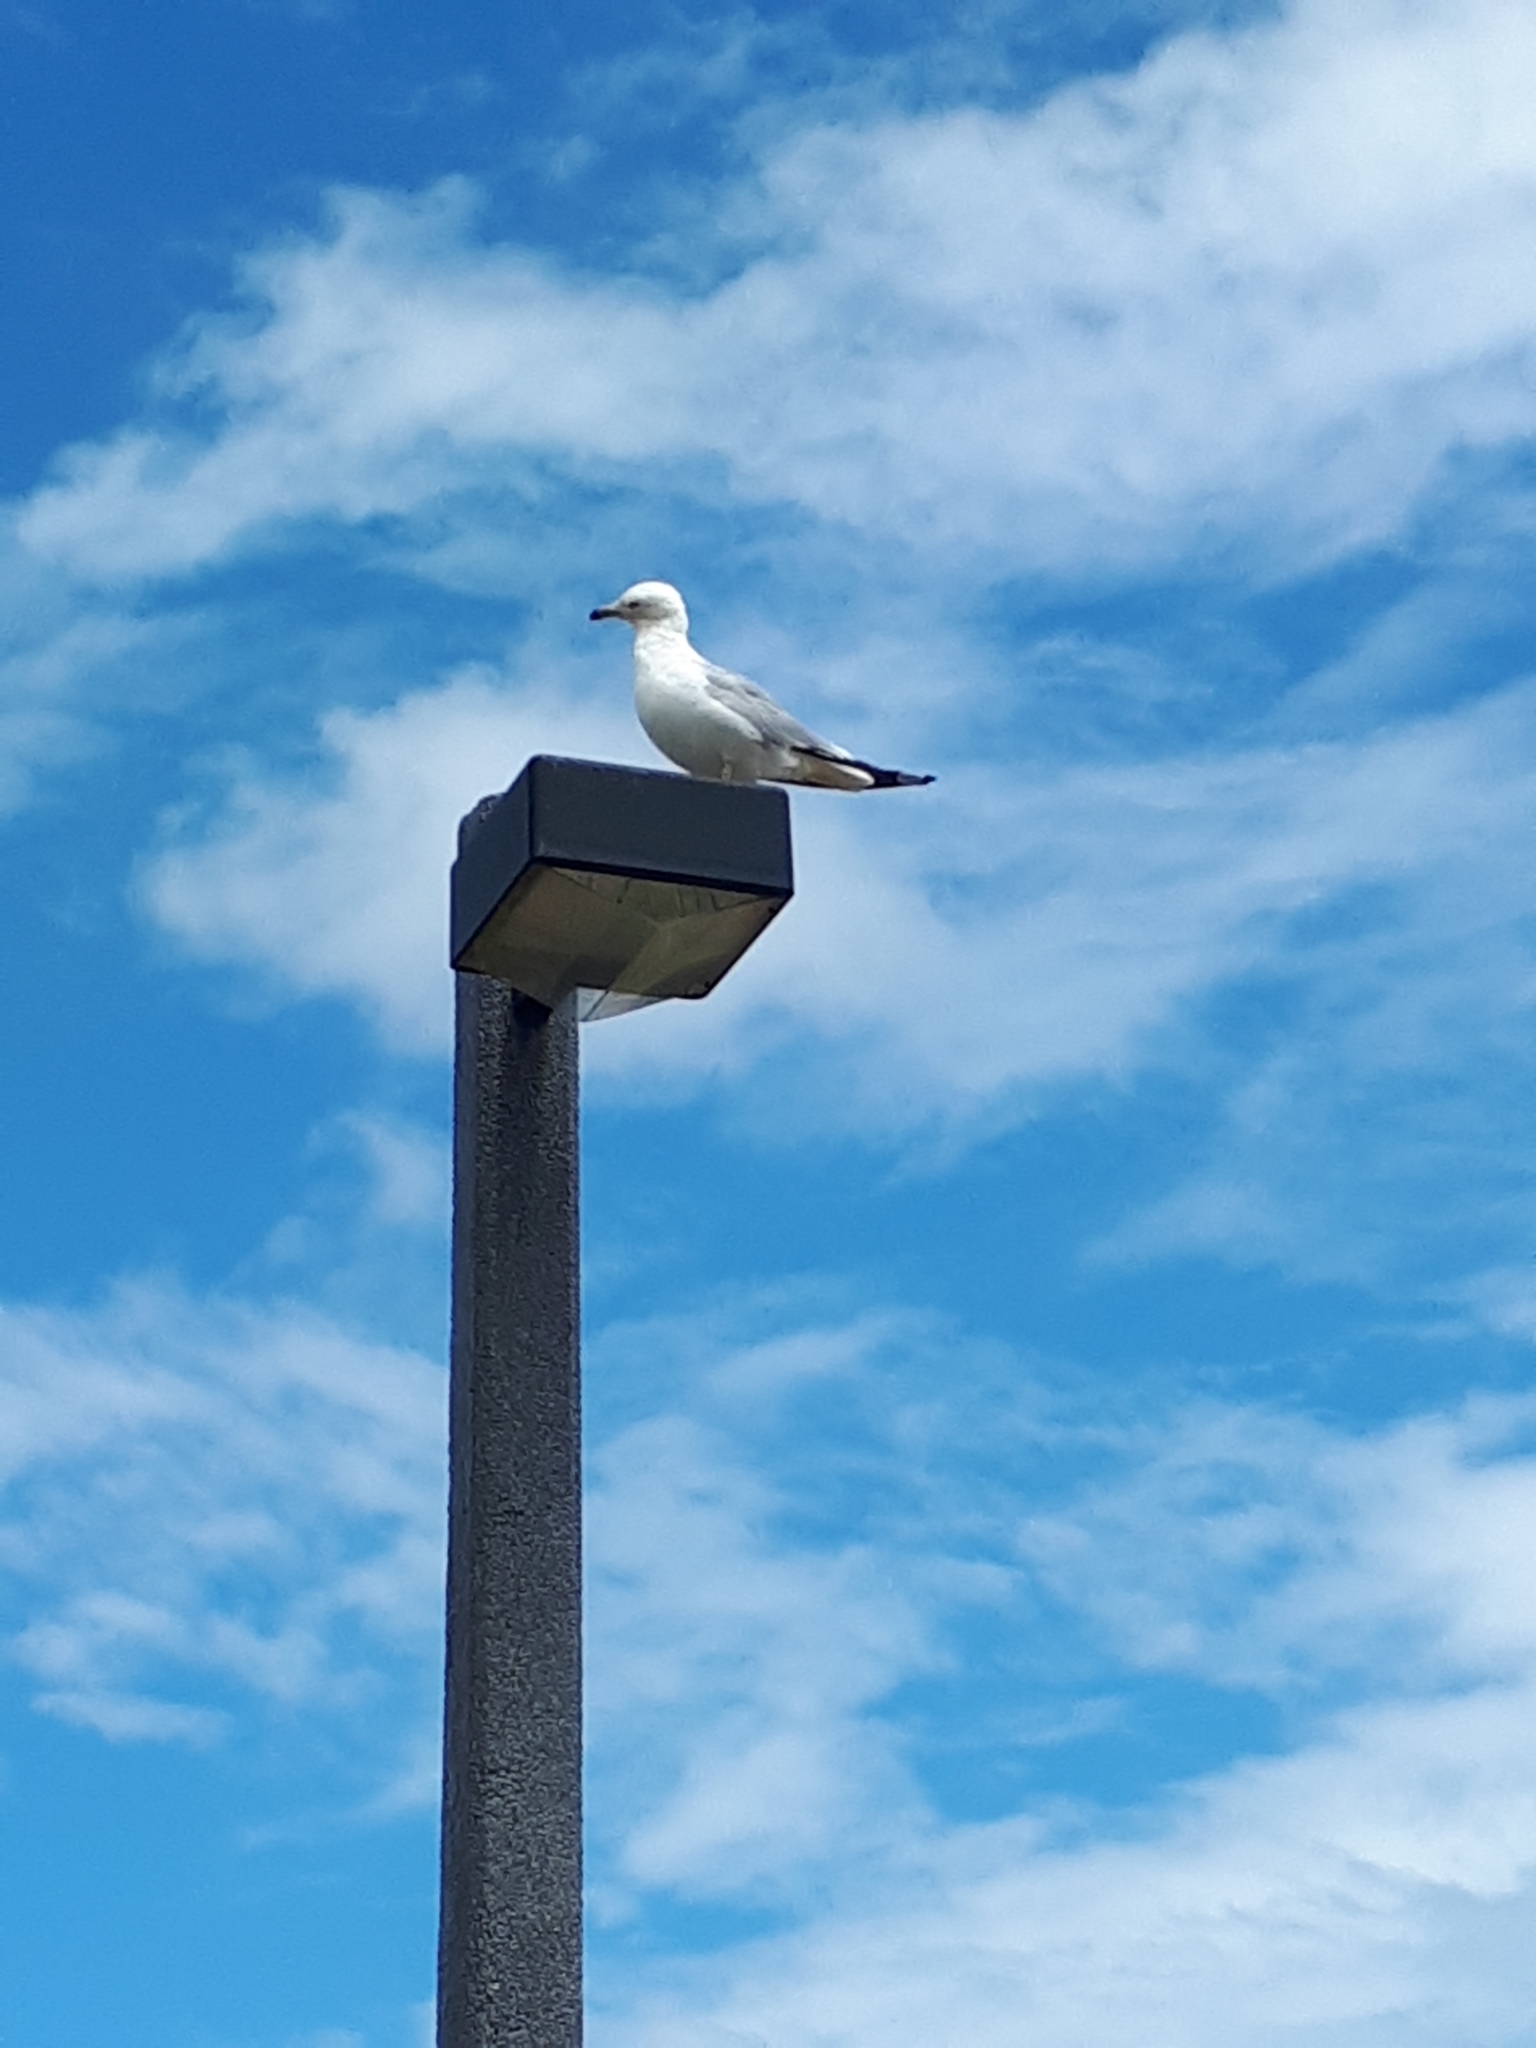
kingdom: Animalia
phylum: Chordata
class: Aves
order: Charadriiformes
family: Laridae
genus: Larus
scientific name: Larus delawarensis
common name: Ring-billed gull
